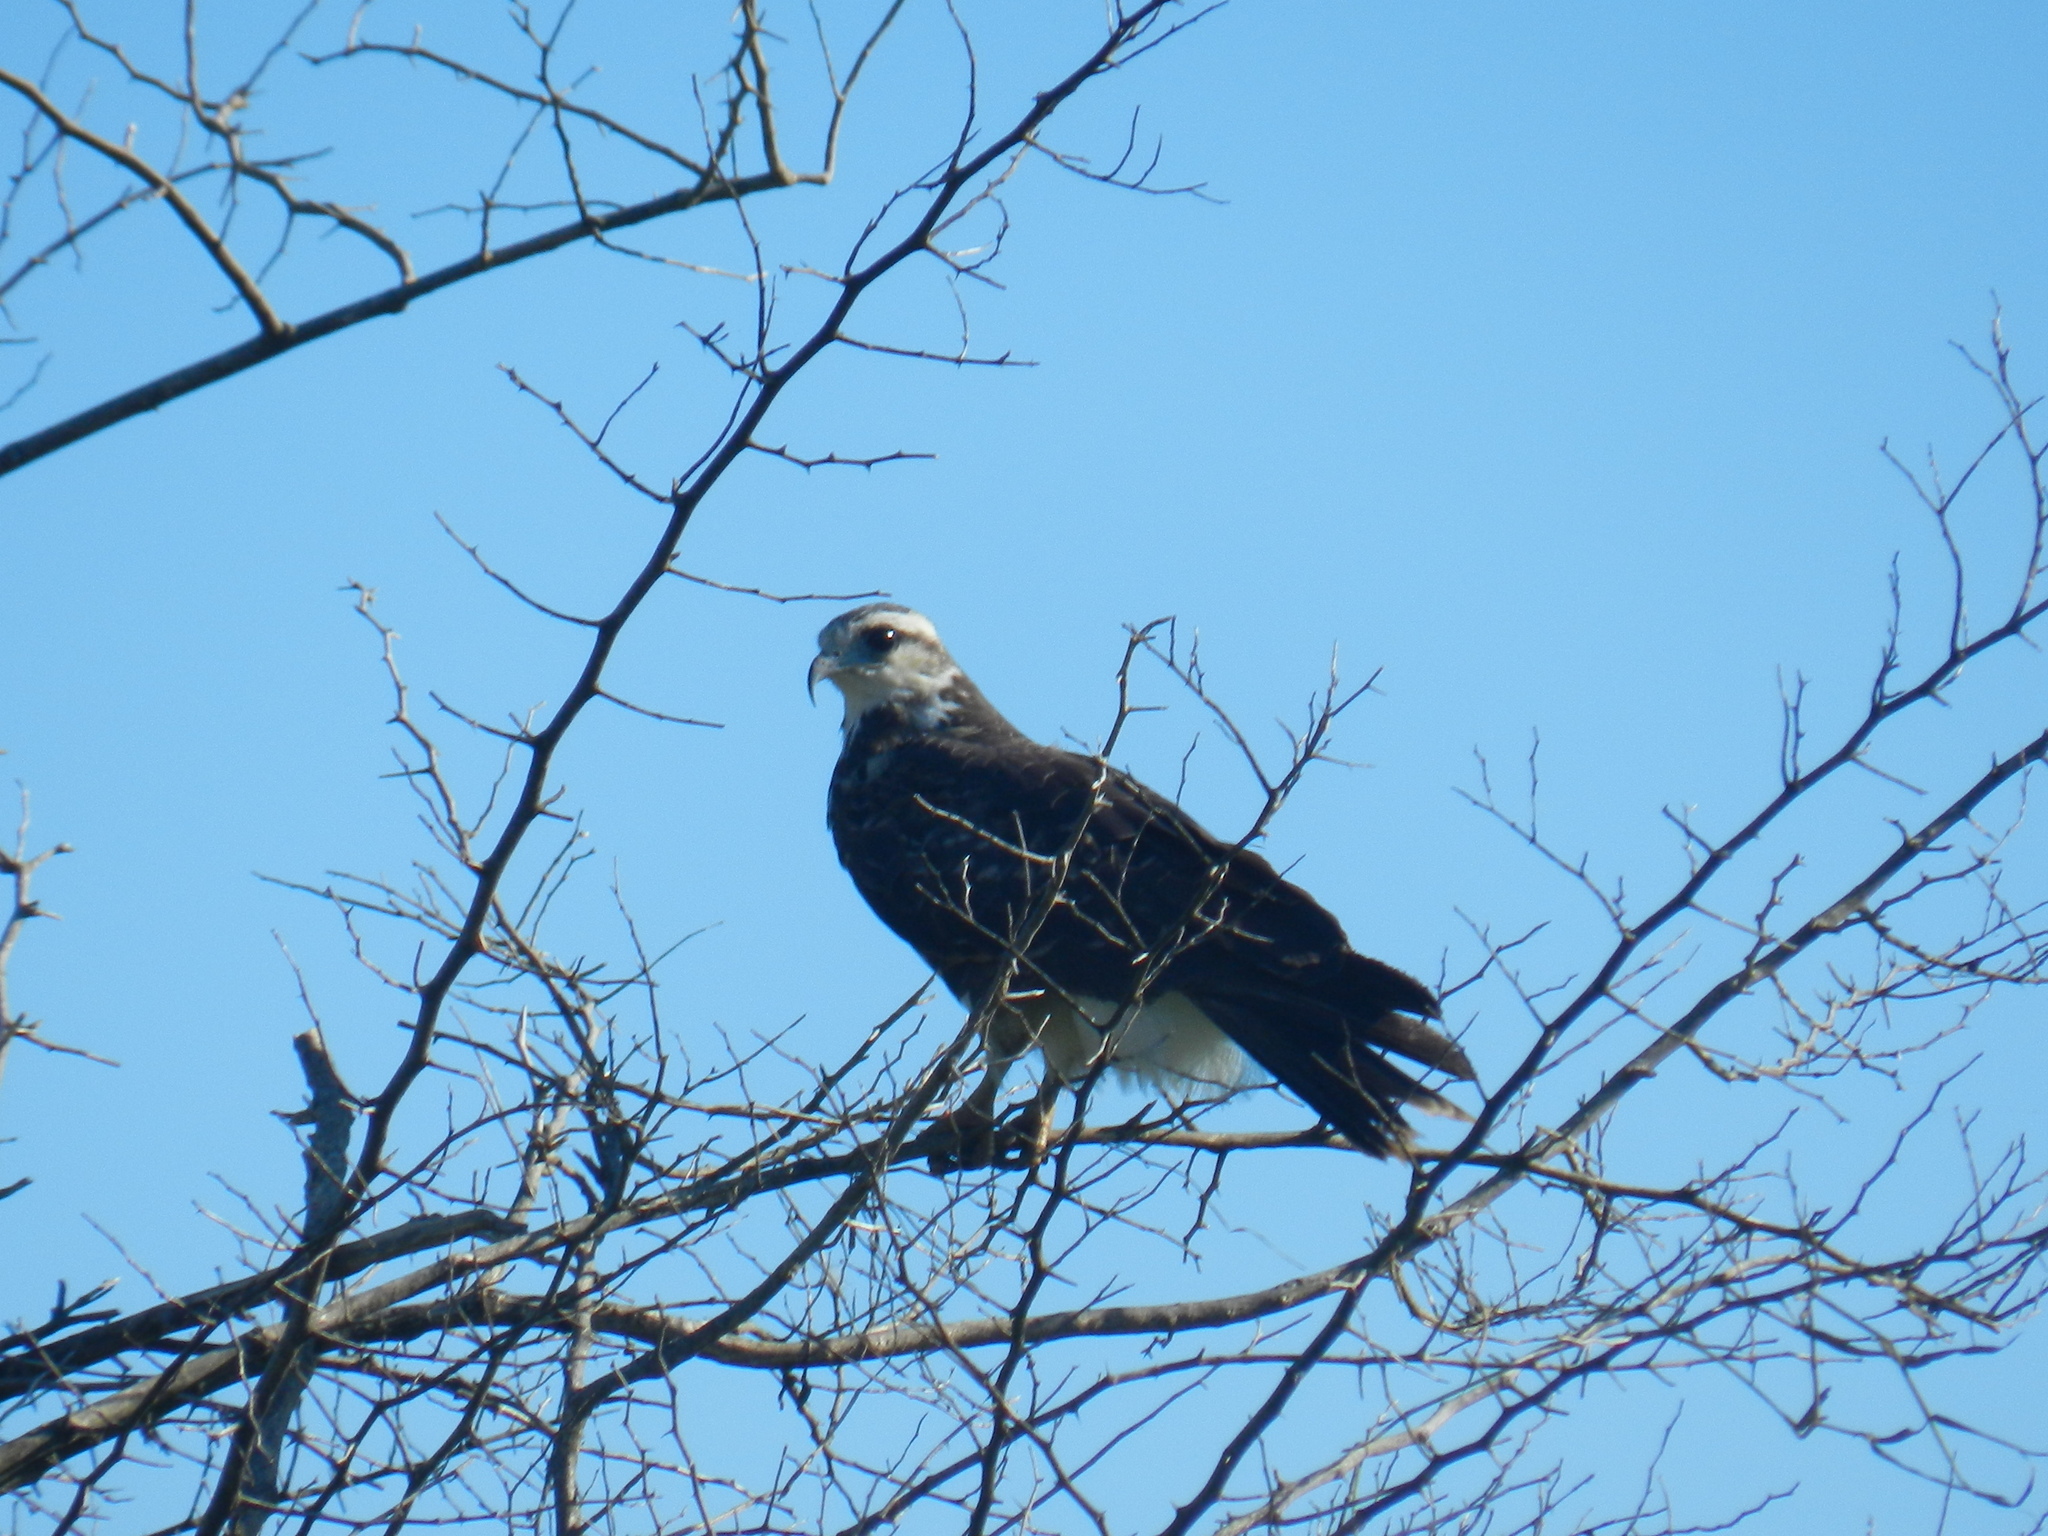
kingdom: Animalia
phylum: Chordata
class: Aves
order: Accipitriformes
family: Accipitridae
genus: Rostrhamus
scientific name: Rostrhamus sociabilis
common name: Snail kite
